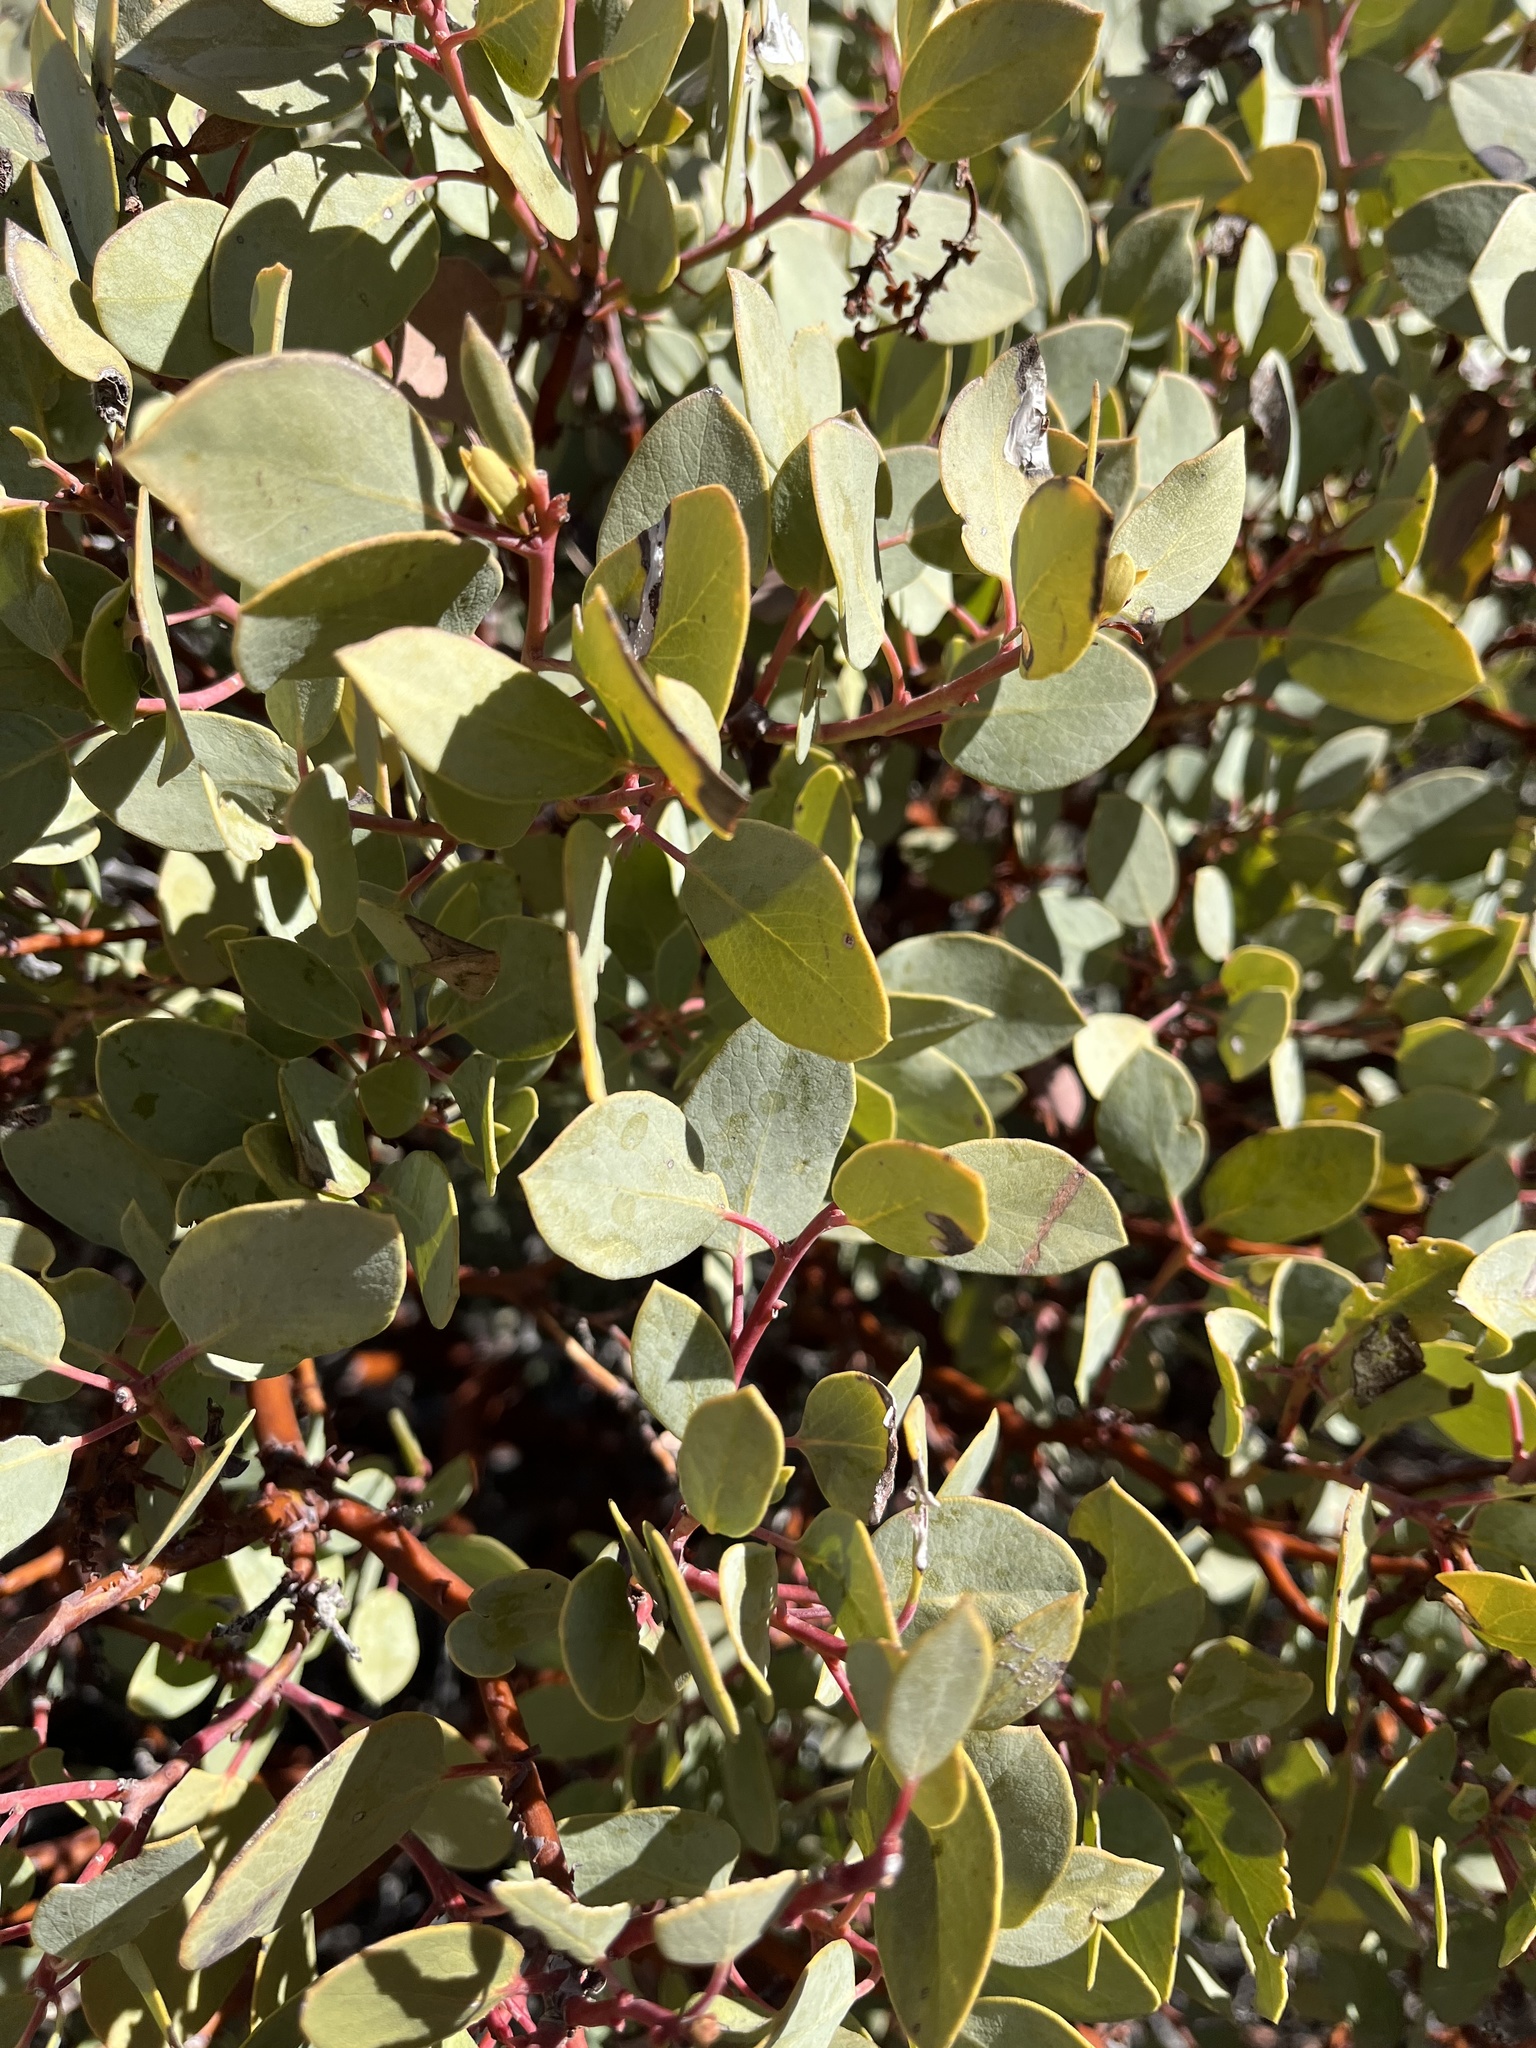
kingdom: Plantae
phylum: Tracheophyta
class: Magnoliopsida
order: Ericales
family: Ericaceae
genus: Arctostaphylos
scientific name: Arctostaphylos glauca
